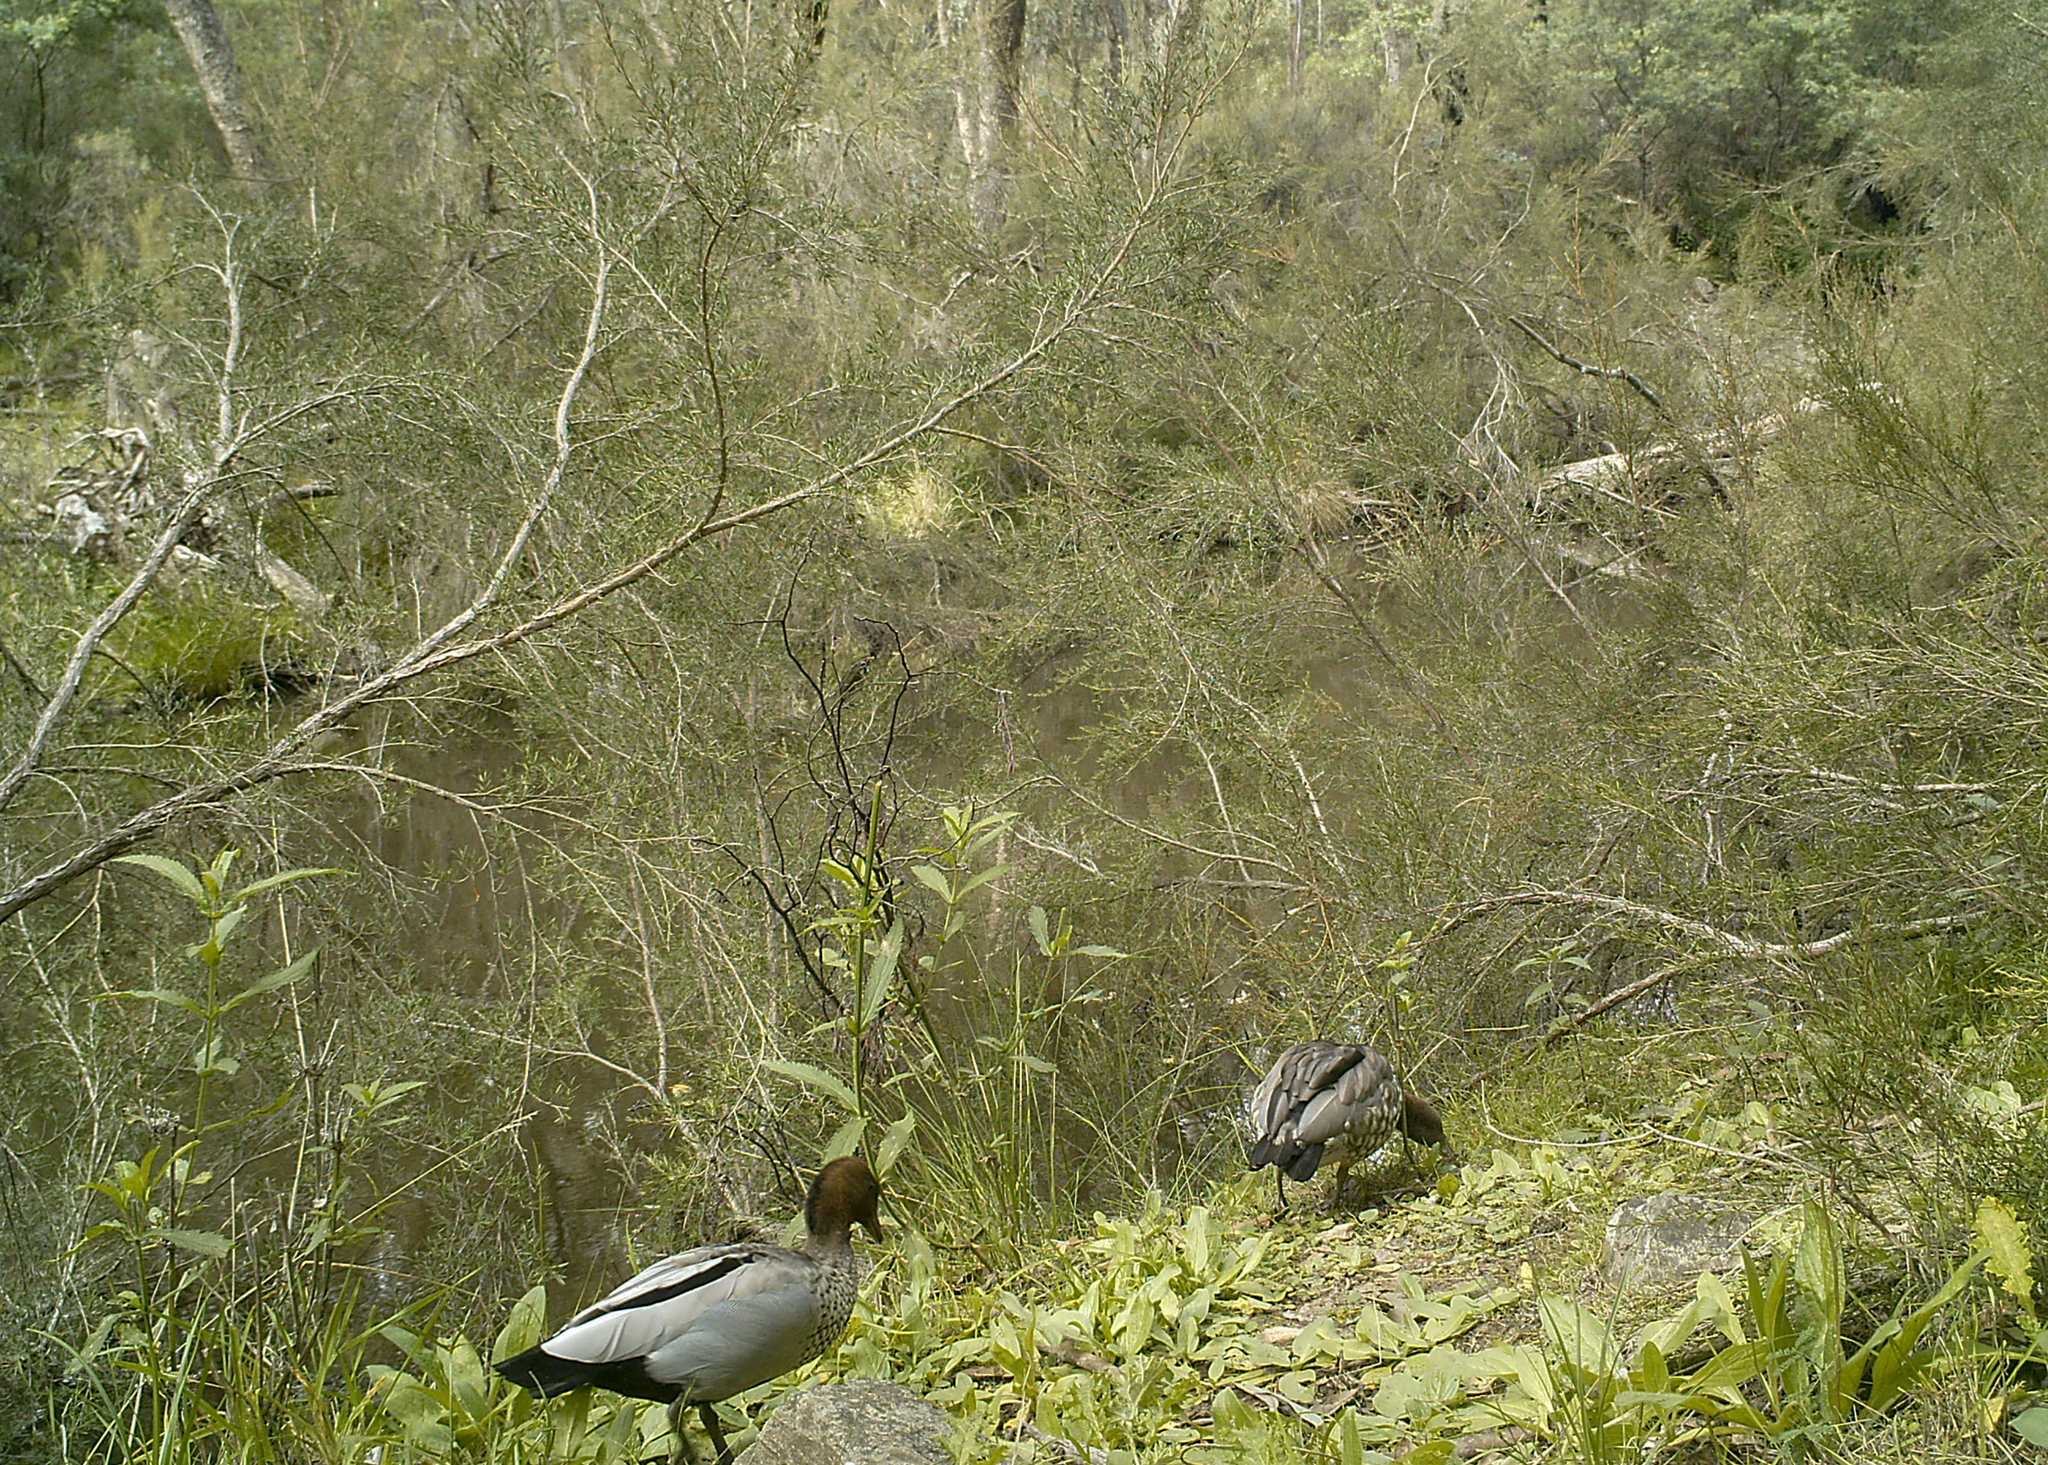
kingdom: Animalia
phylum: Chordata
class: Aves
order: Anseriformes
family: Anatidae
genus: Chenonetta
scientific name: Chenonetta jubata
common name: Maned duck
